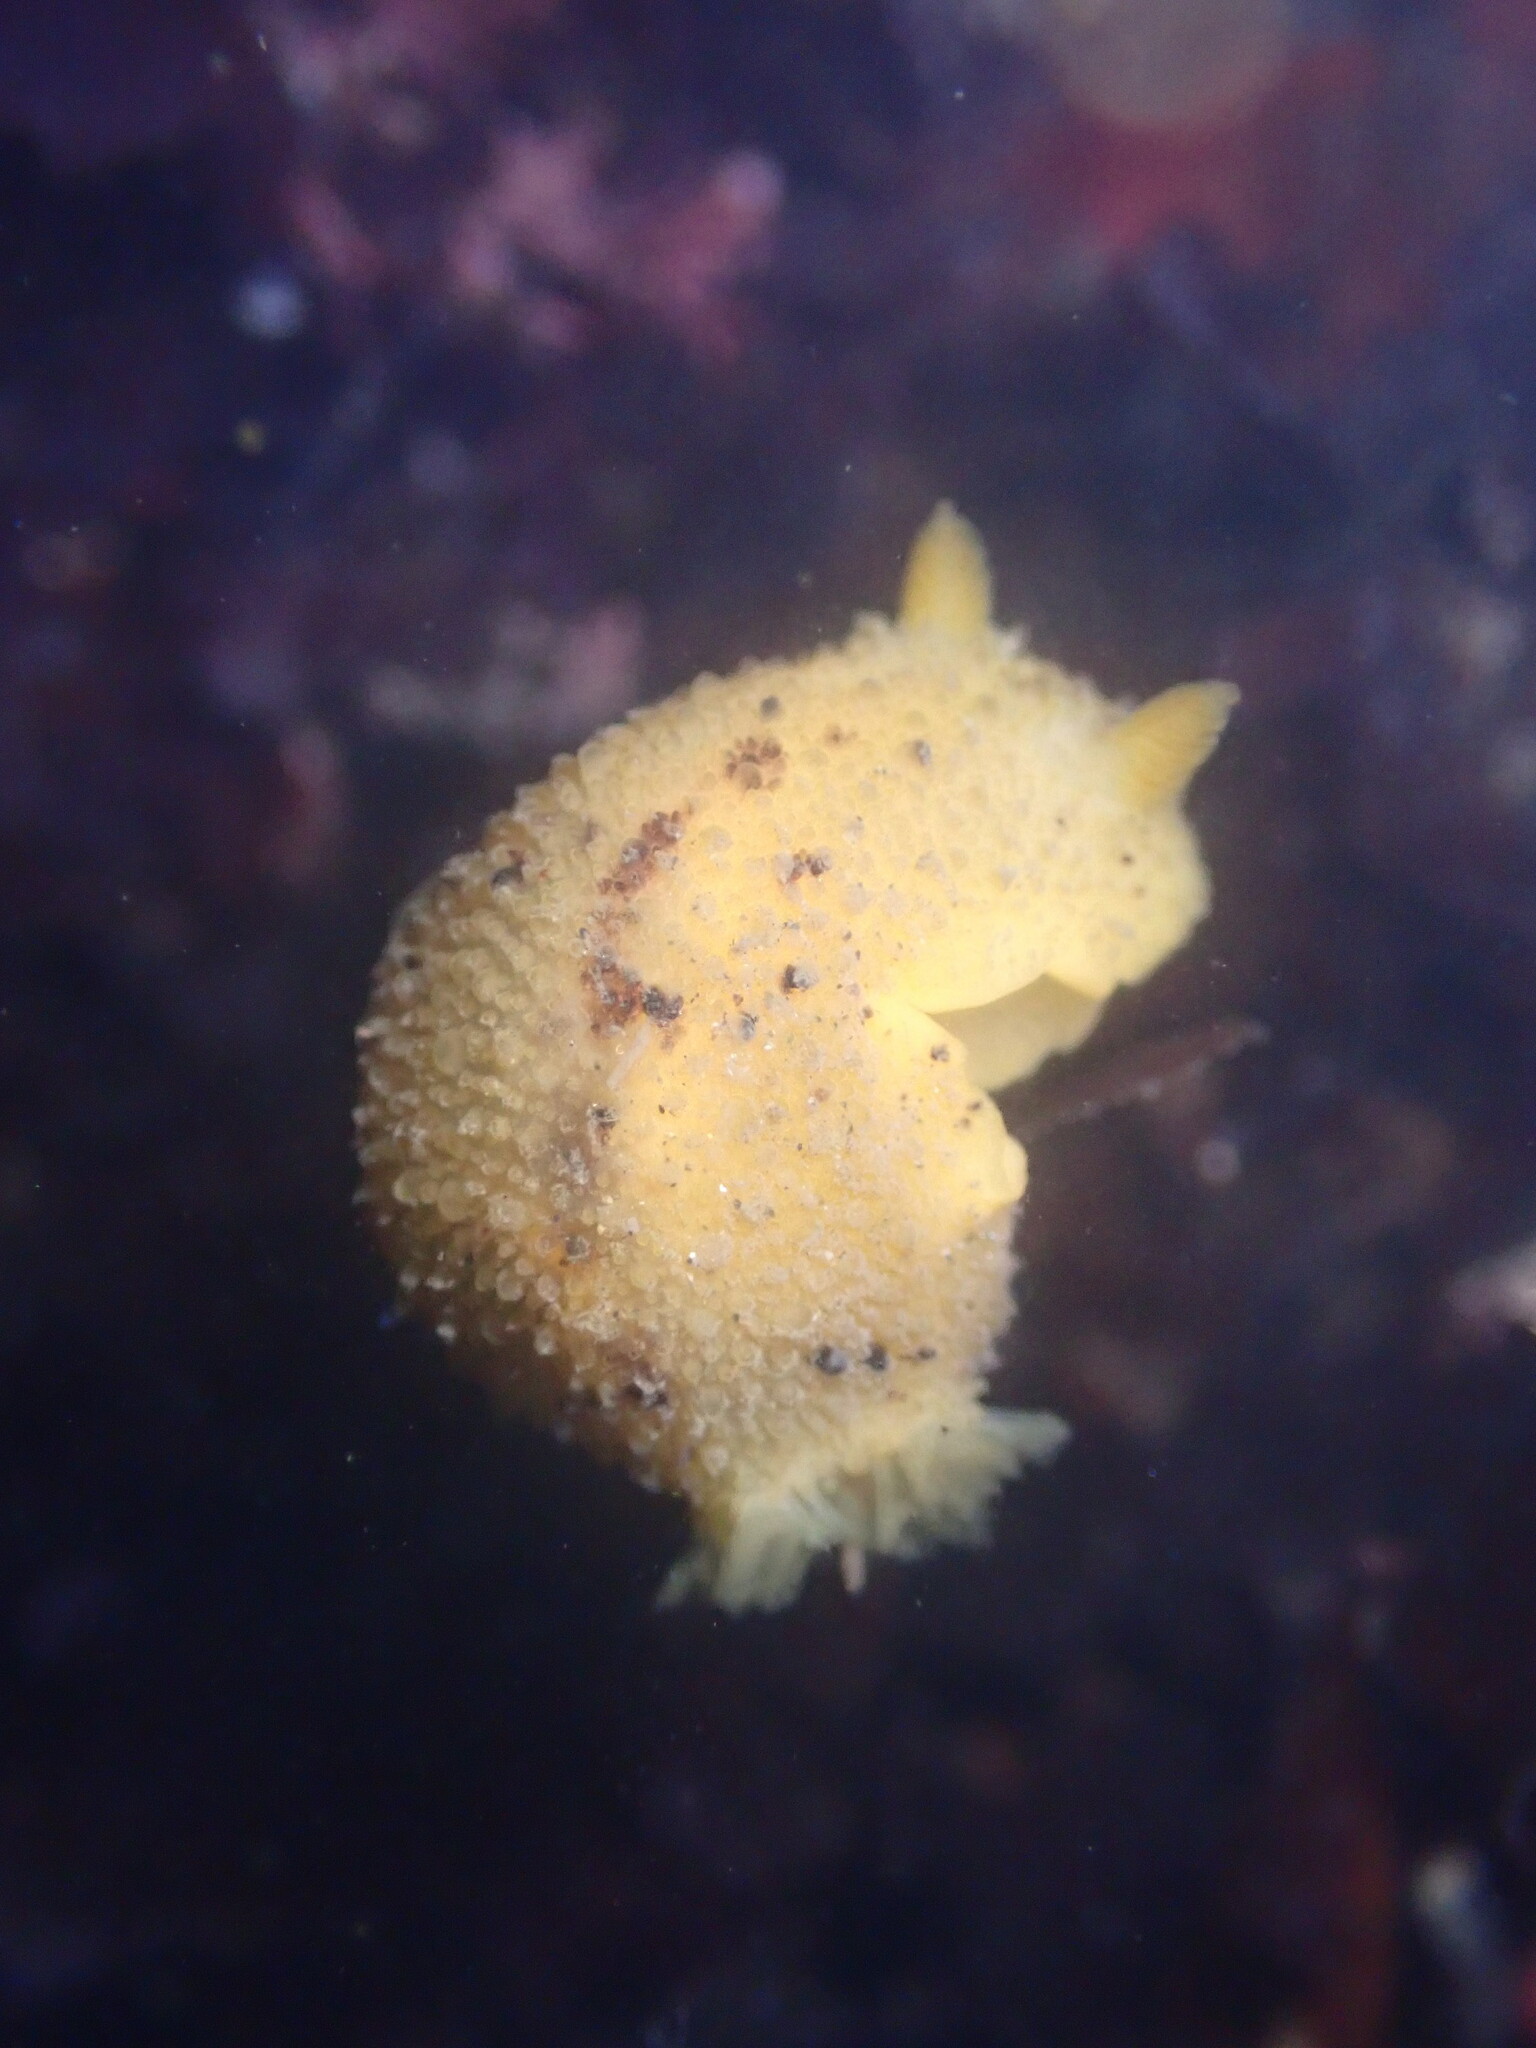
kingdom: Animalia
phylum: Mollusca
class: Gastropoda
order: Nudibranchia
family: Dorididae
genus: Doris
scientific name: Doris montereyensis
